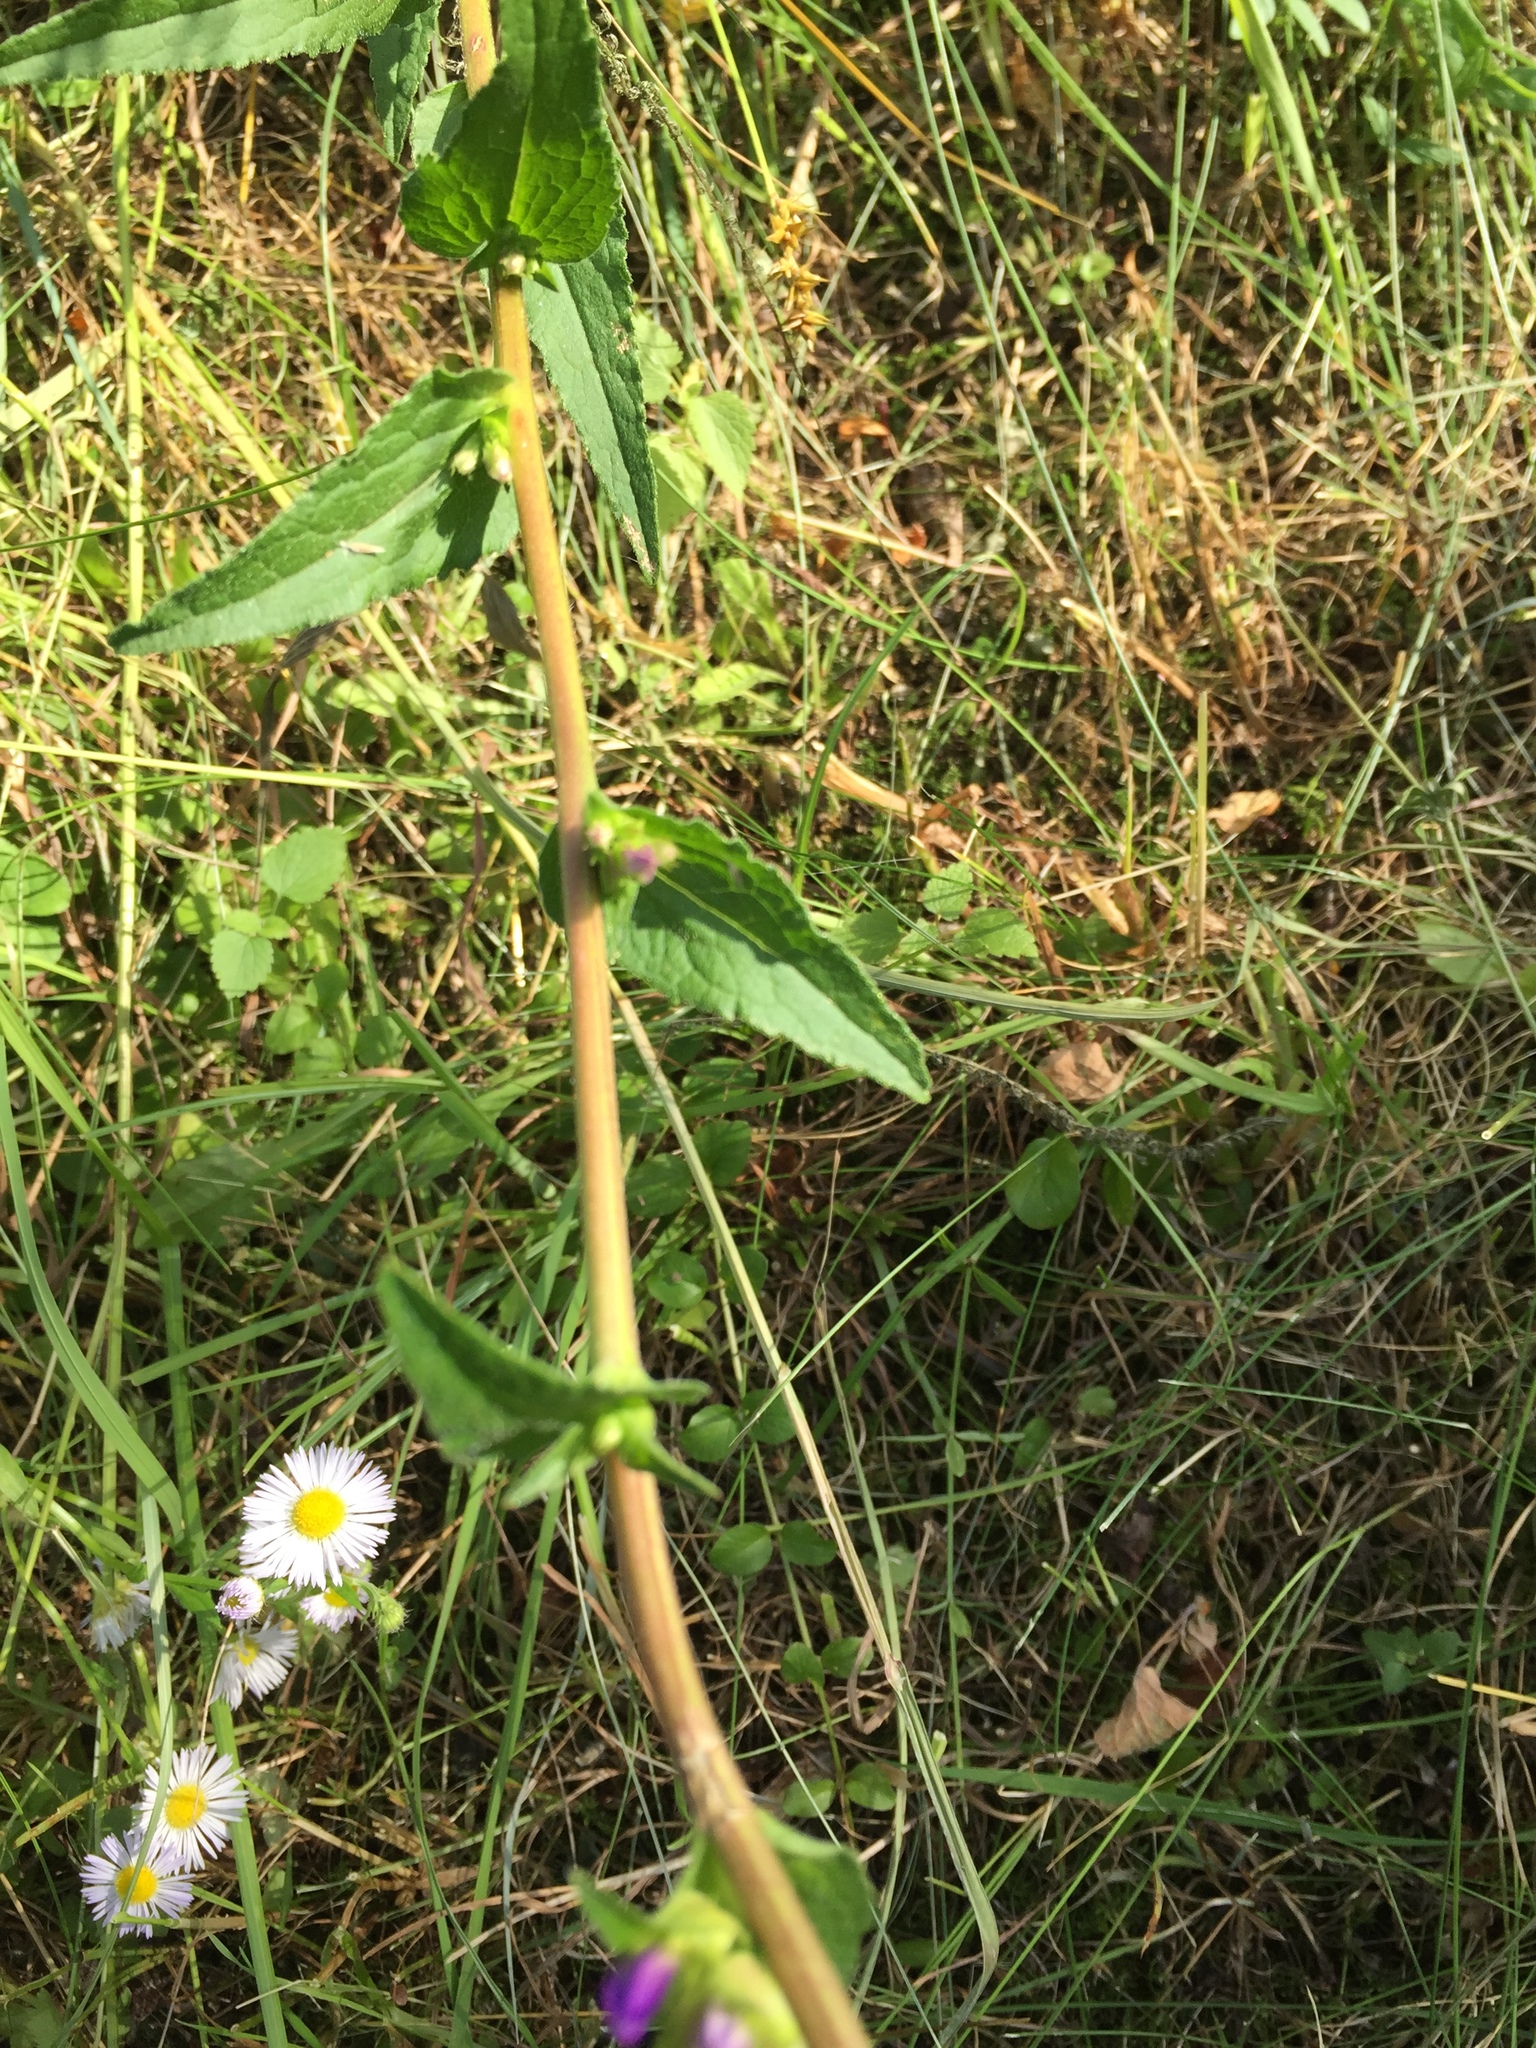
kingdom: Plantae
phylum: Tracheophyta
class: Magnoliopsida
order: Asterales
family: Campanulaceae
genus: Campanula
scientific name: Campanula glomerata
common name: Clustered bellflower
